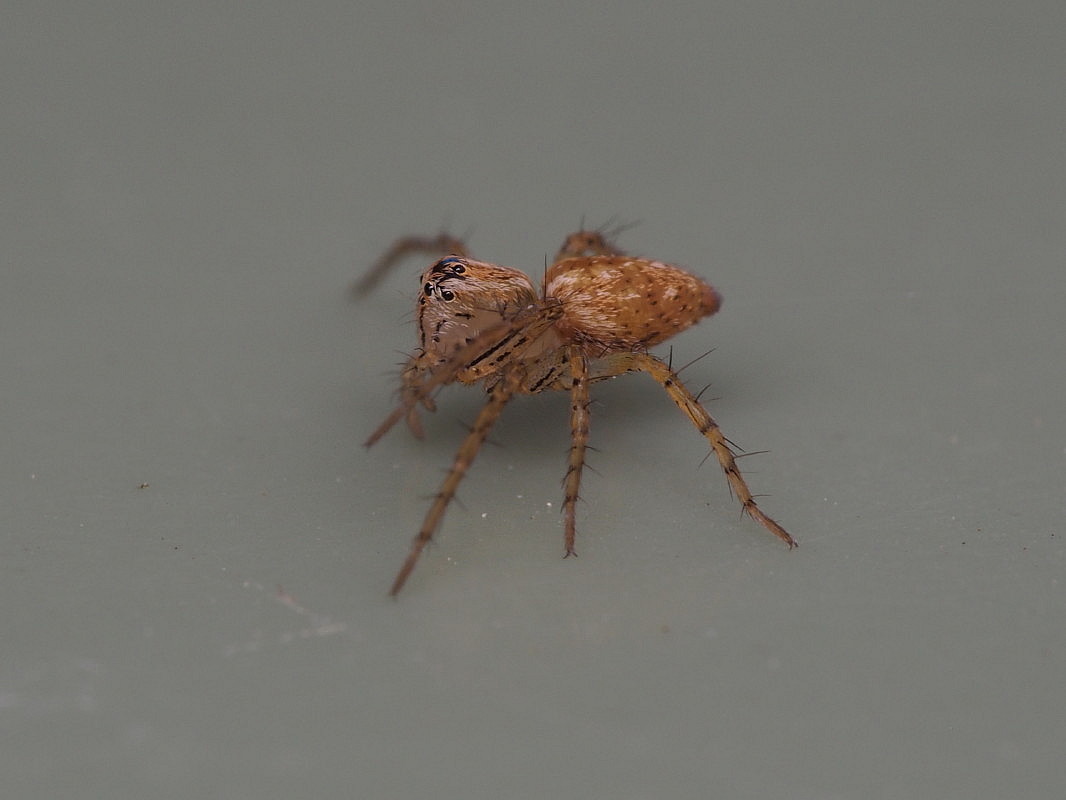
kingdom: Animalia
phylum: Arthropoda
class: Arachnida
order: Araneae
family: Oxyopidae
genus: Oxyopes
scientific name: Oxyopes gracilipes
